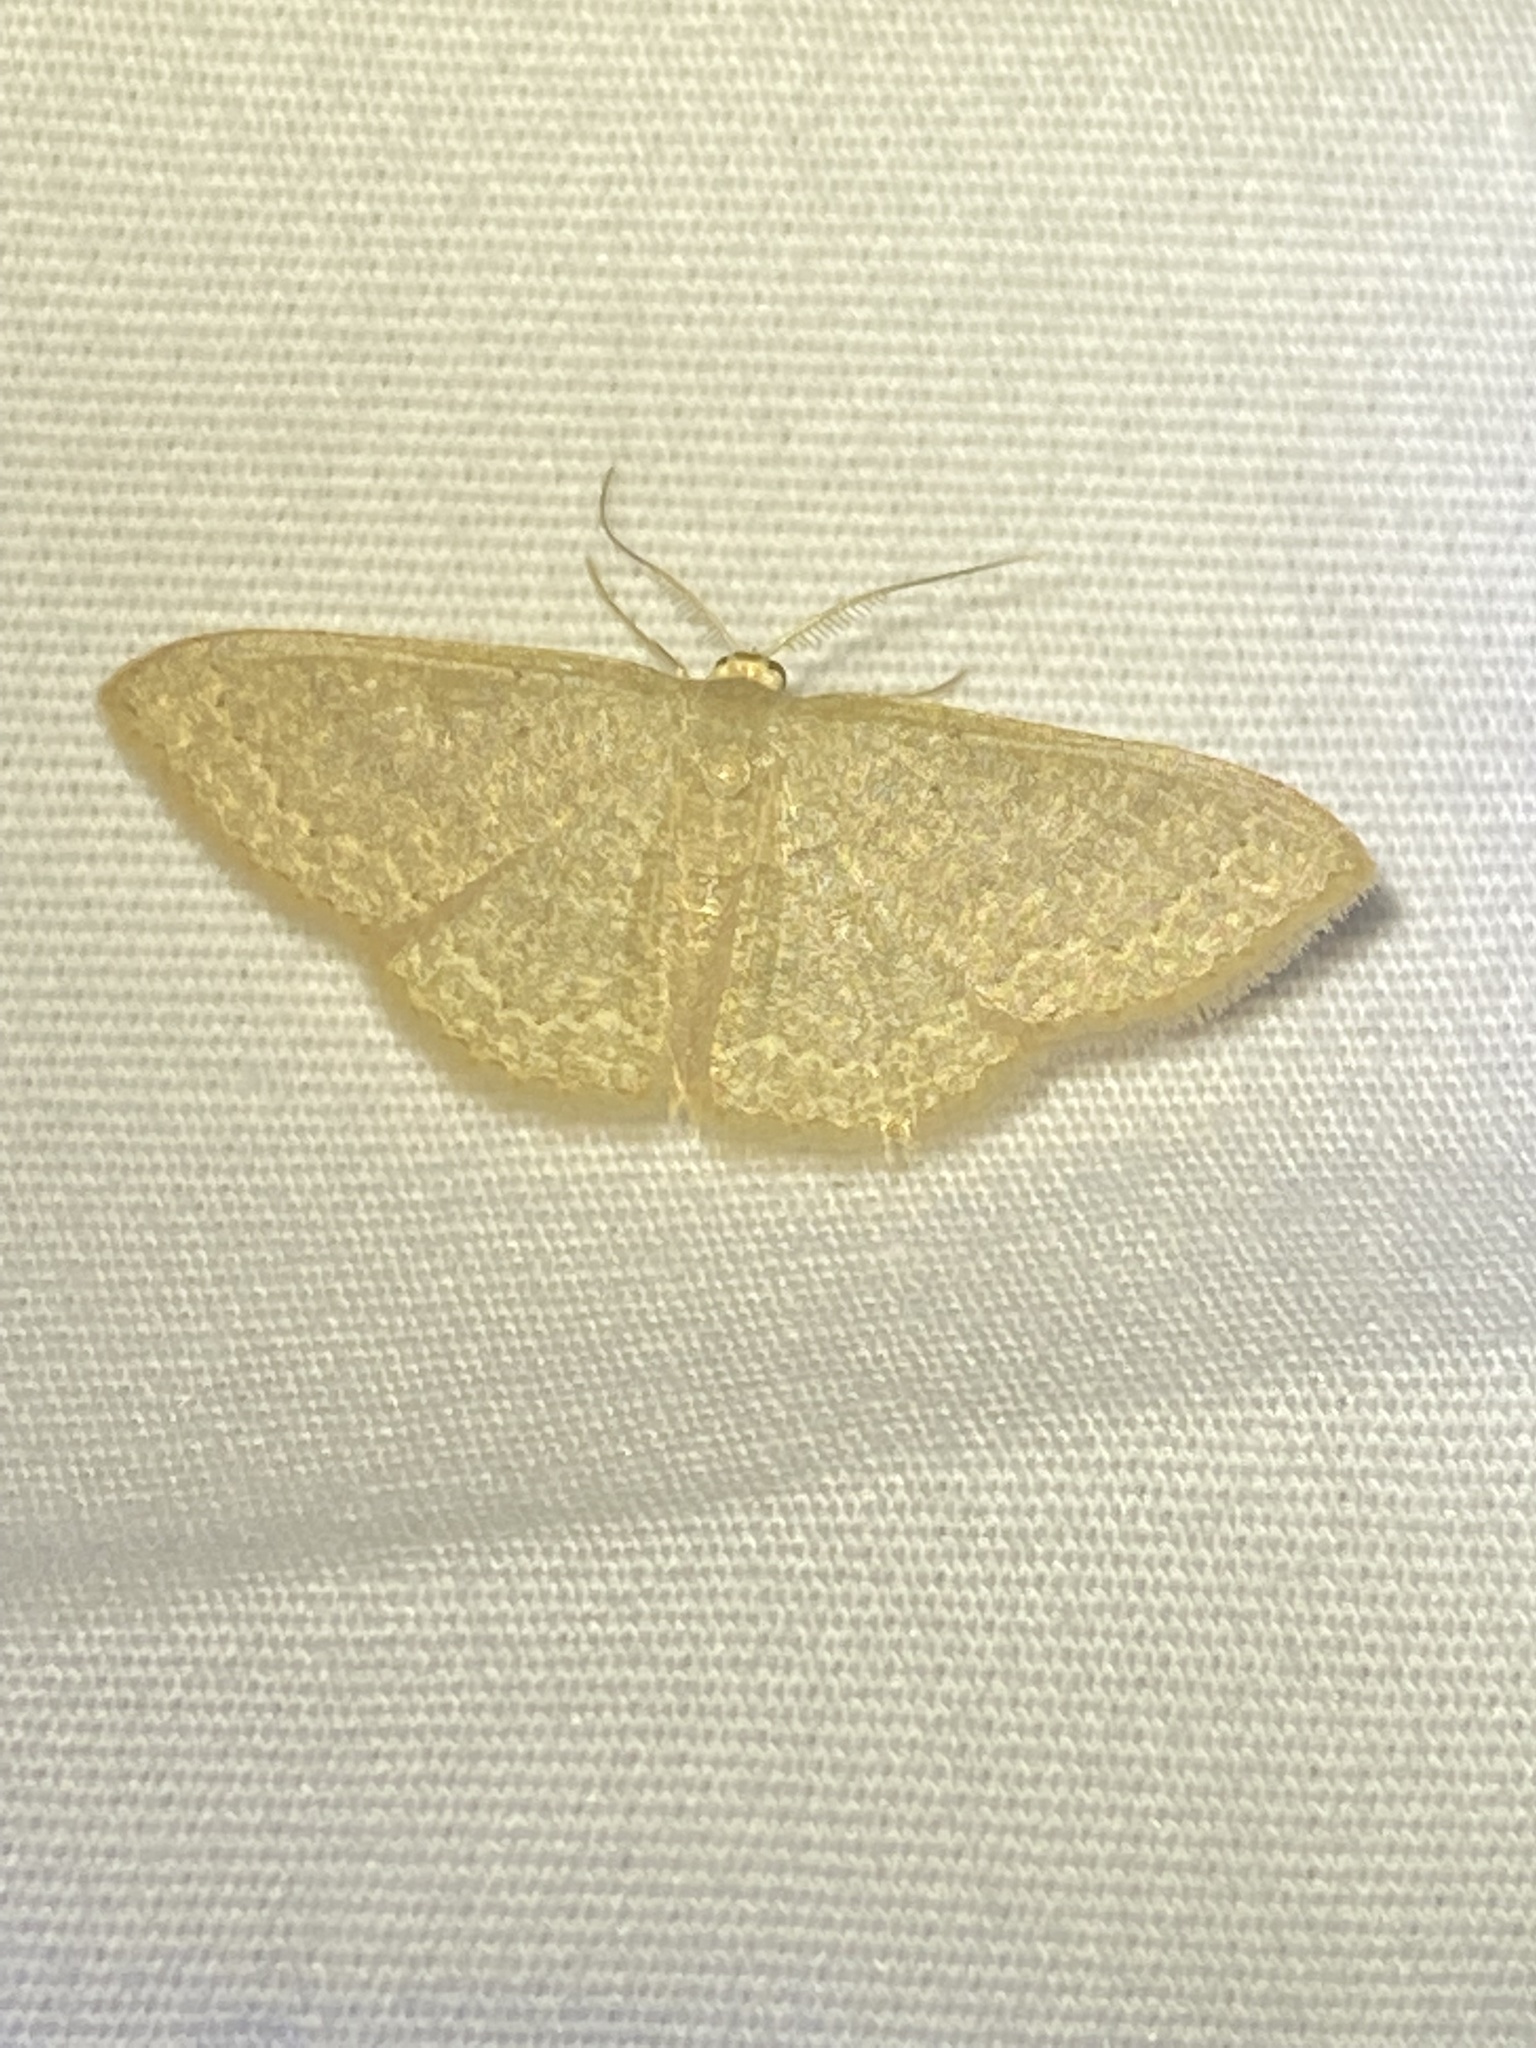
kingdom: Animalia
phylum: Arthropoda
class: Insecta
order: Lepidoptera
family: Geometridae
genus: Pleuroprucha
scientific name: Pleuroprucha insulsaria
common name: Common tan wave
